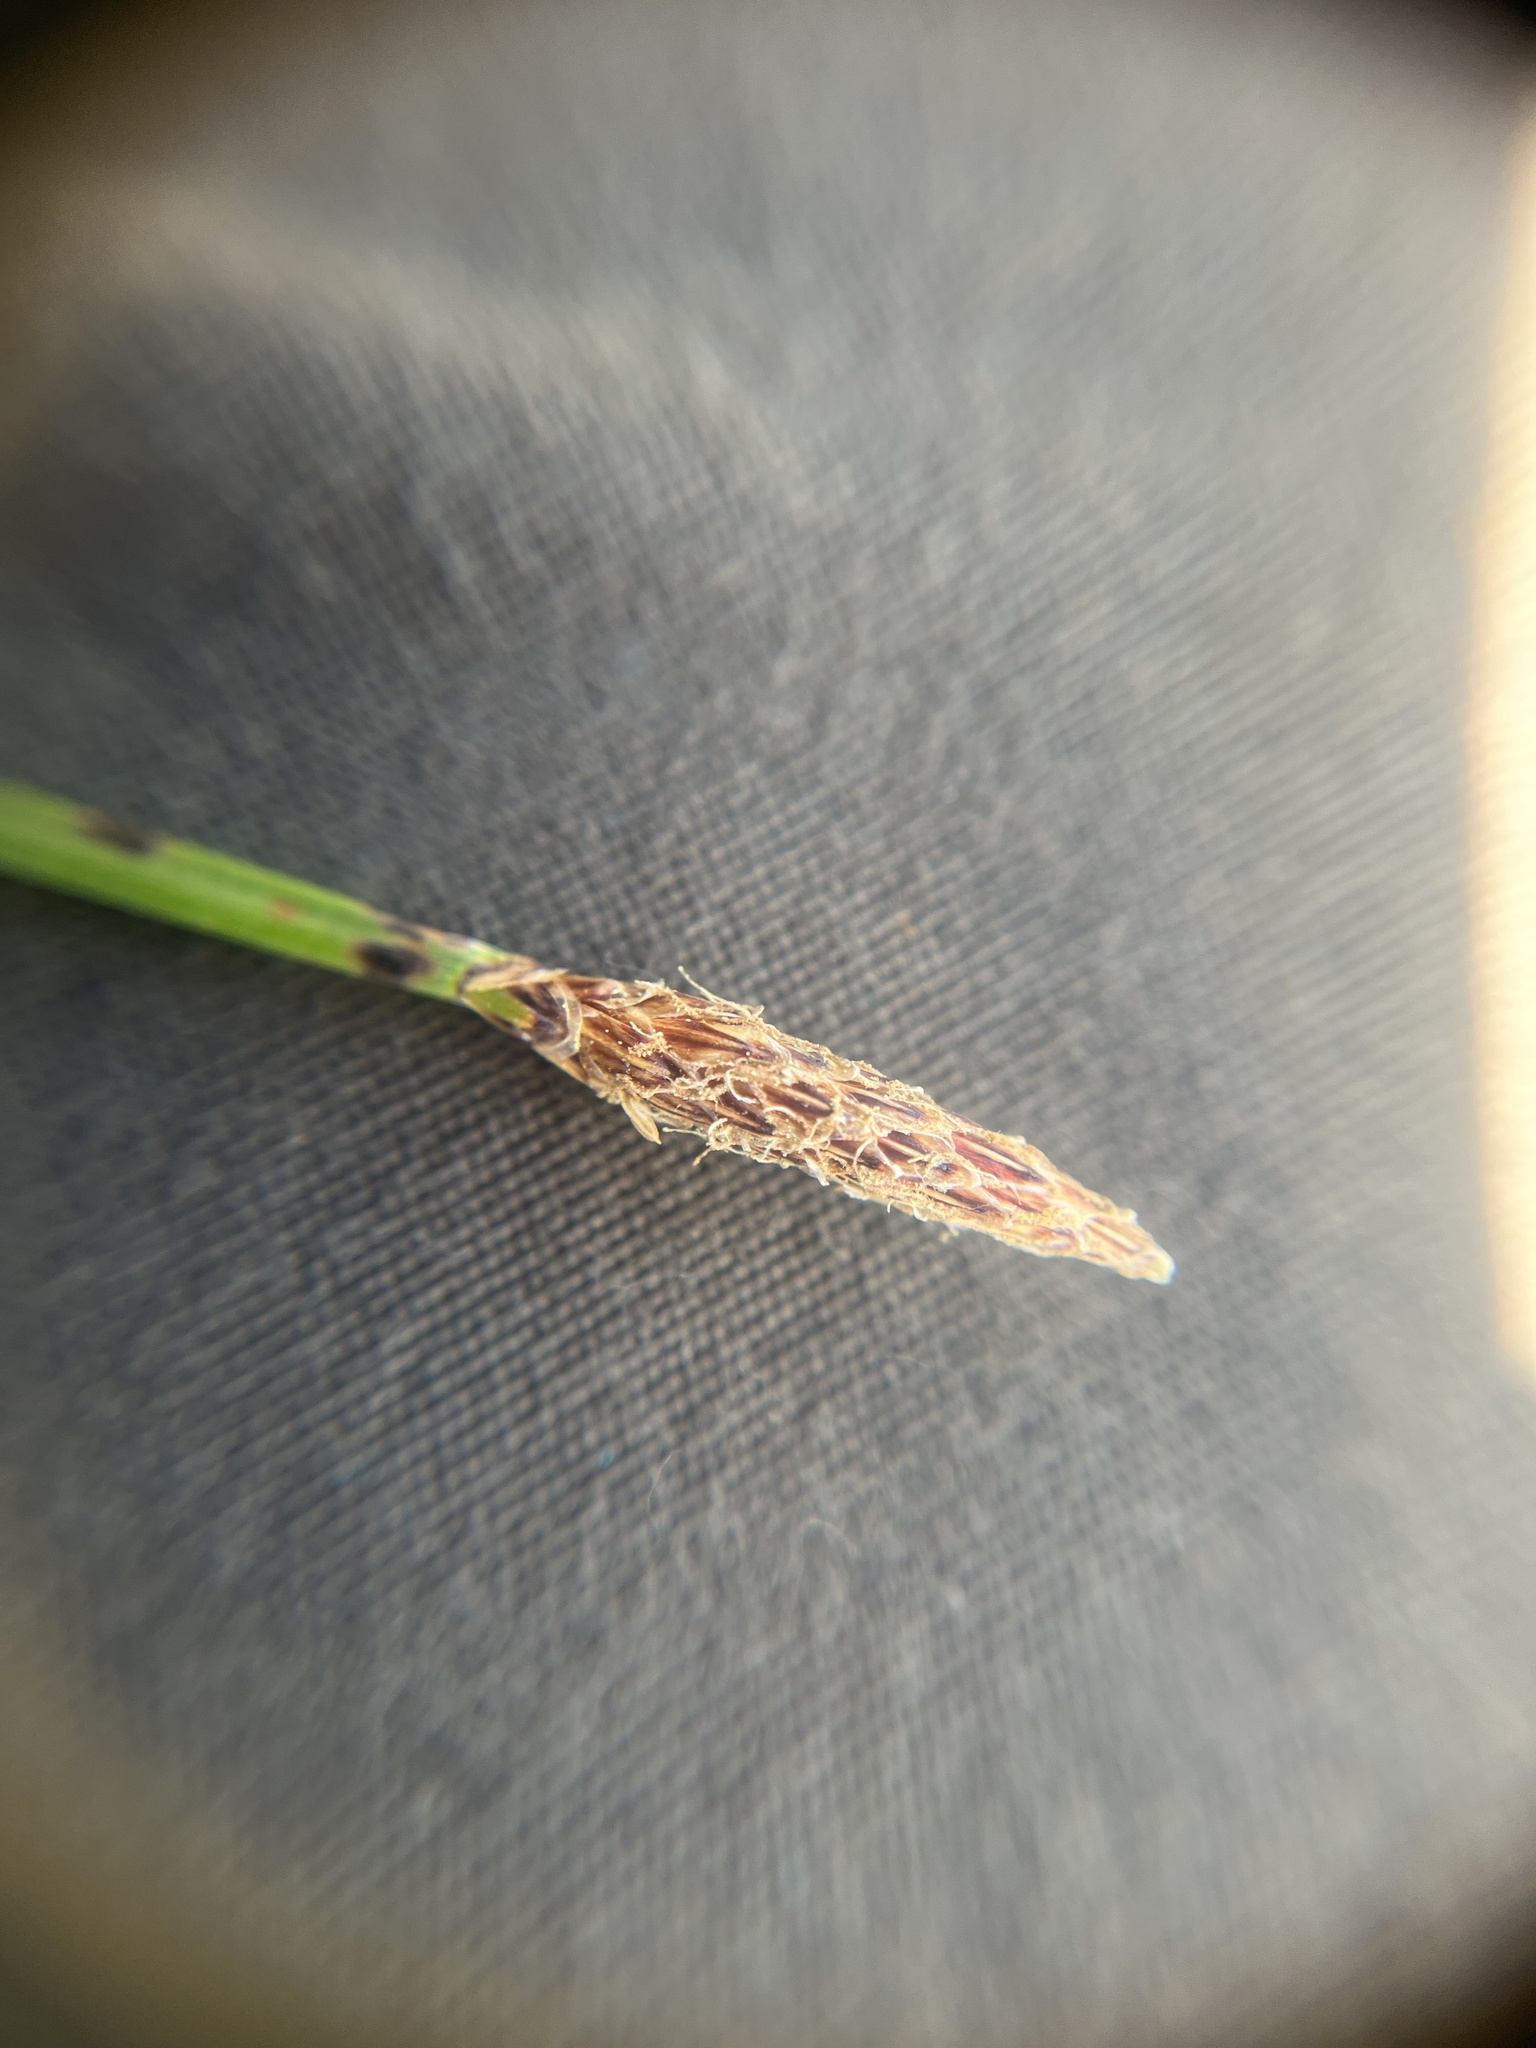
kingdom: Plantae
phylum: Tracheophyta
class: Liliopsida
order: Poales
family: Cyperaceae
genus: Eleocharis
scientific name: Eleocharis macrostachya
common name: Pale spikerush
